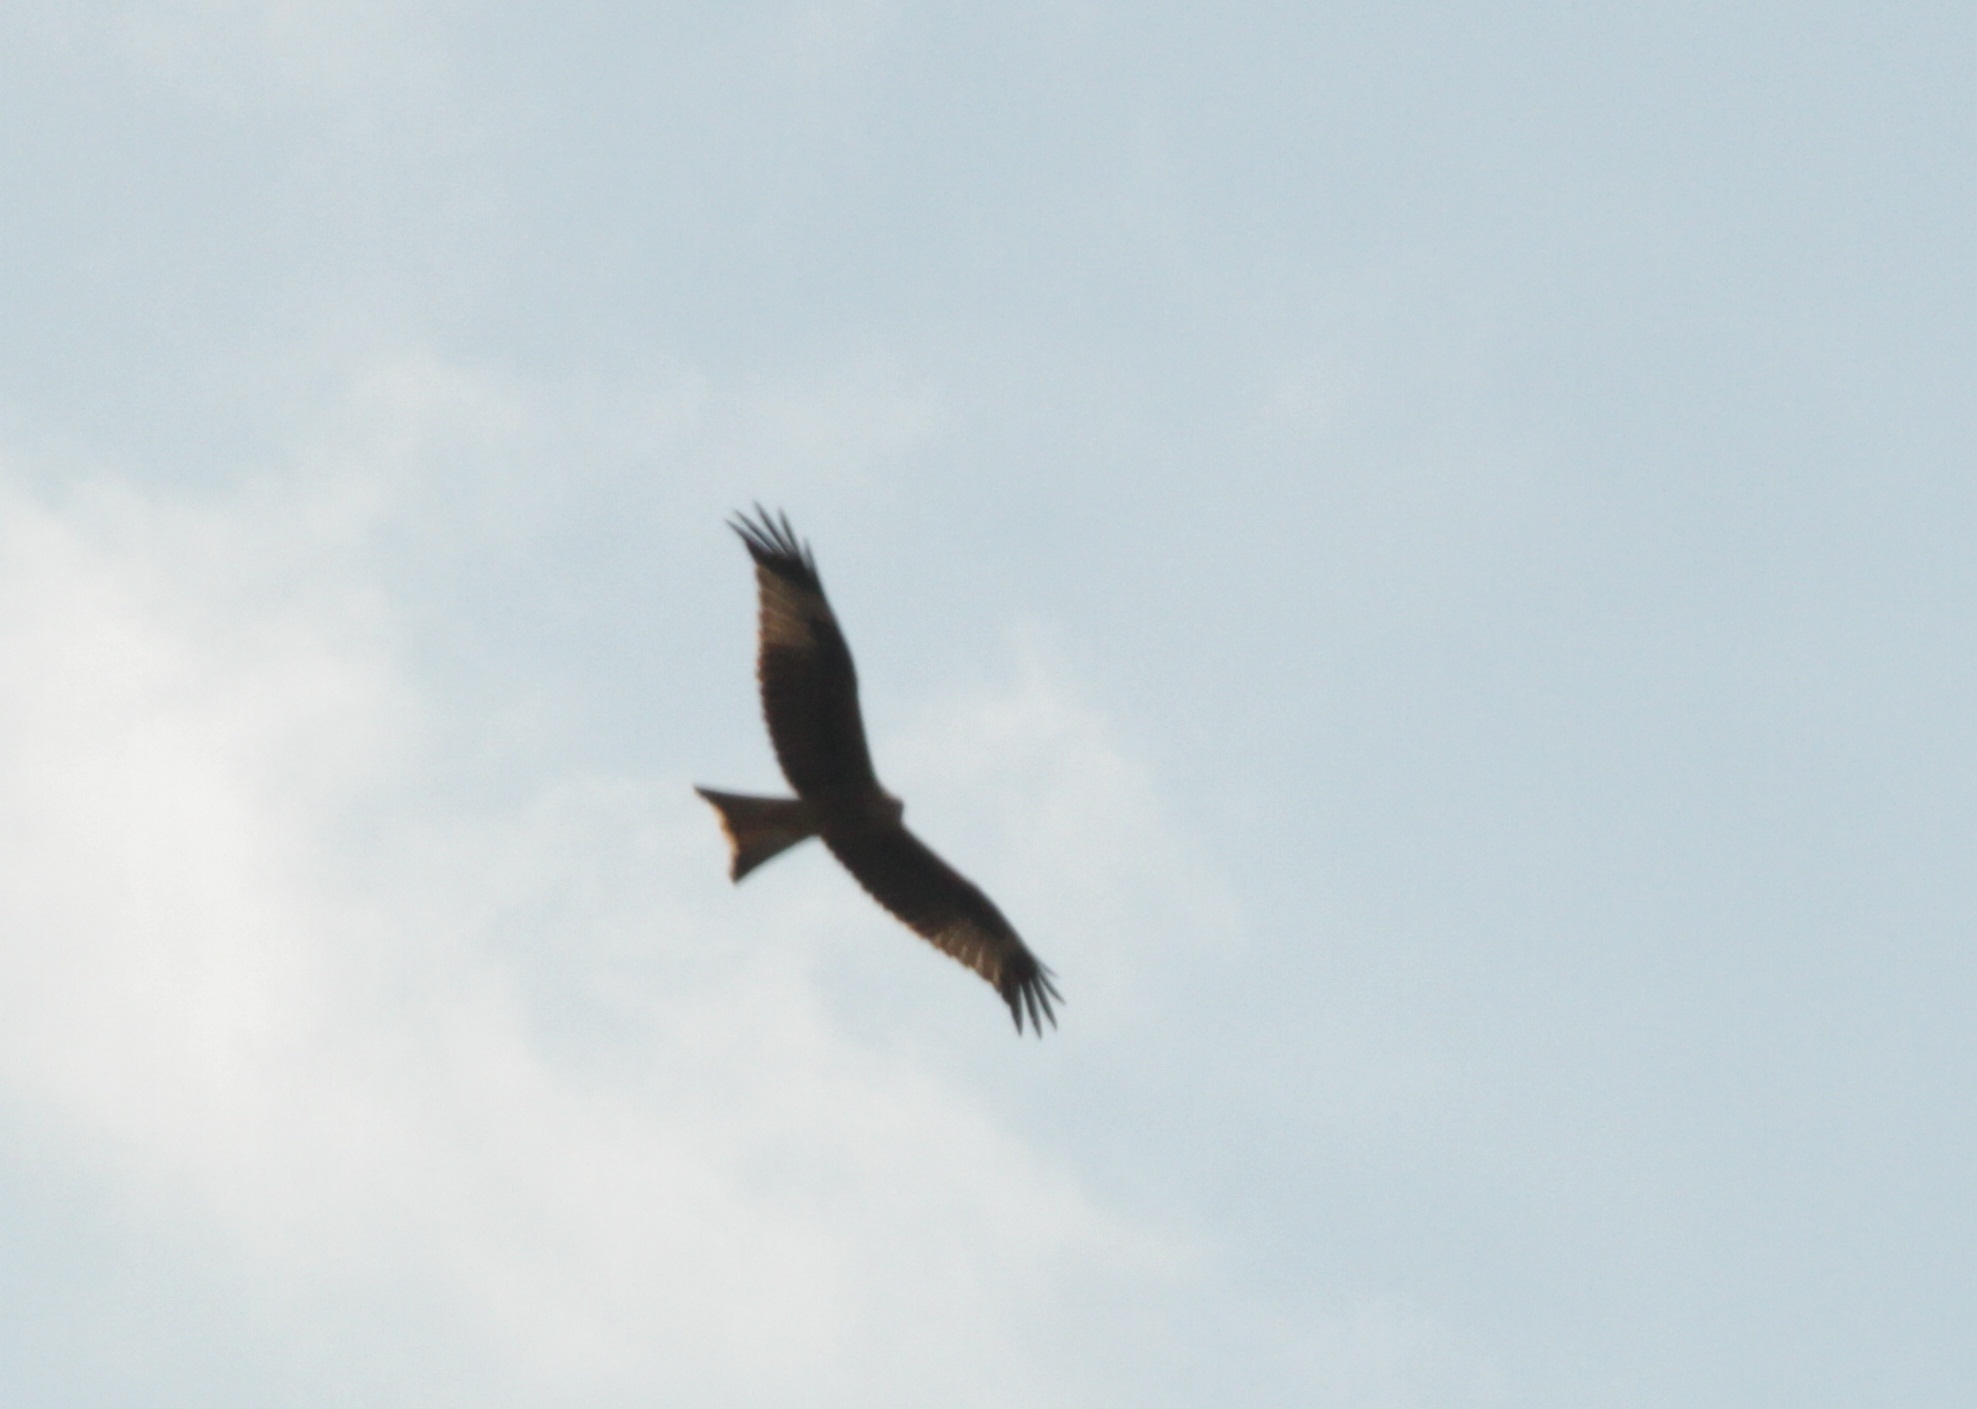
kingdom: Animalia
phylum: Chordata
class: Aves
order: Accipitriformes
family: Accipitridae
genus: Milvus
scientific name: Milvus milvus
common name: Red kite
